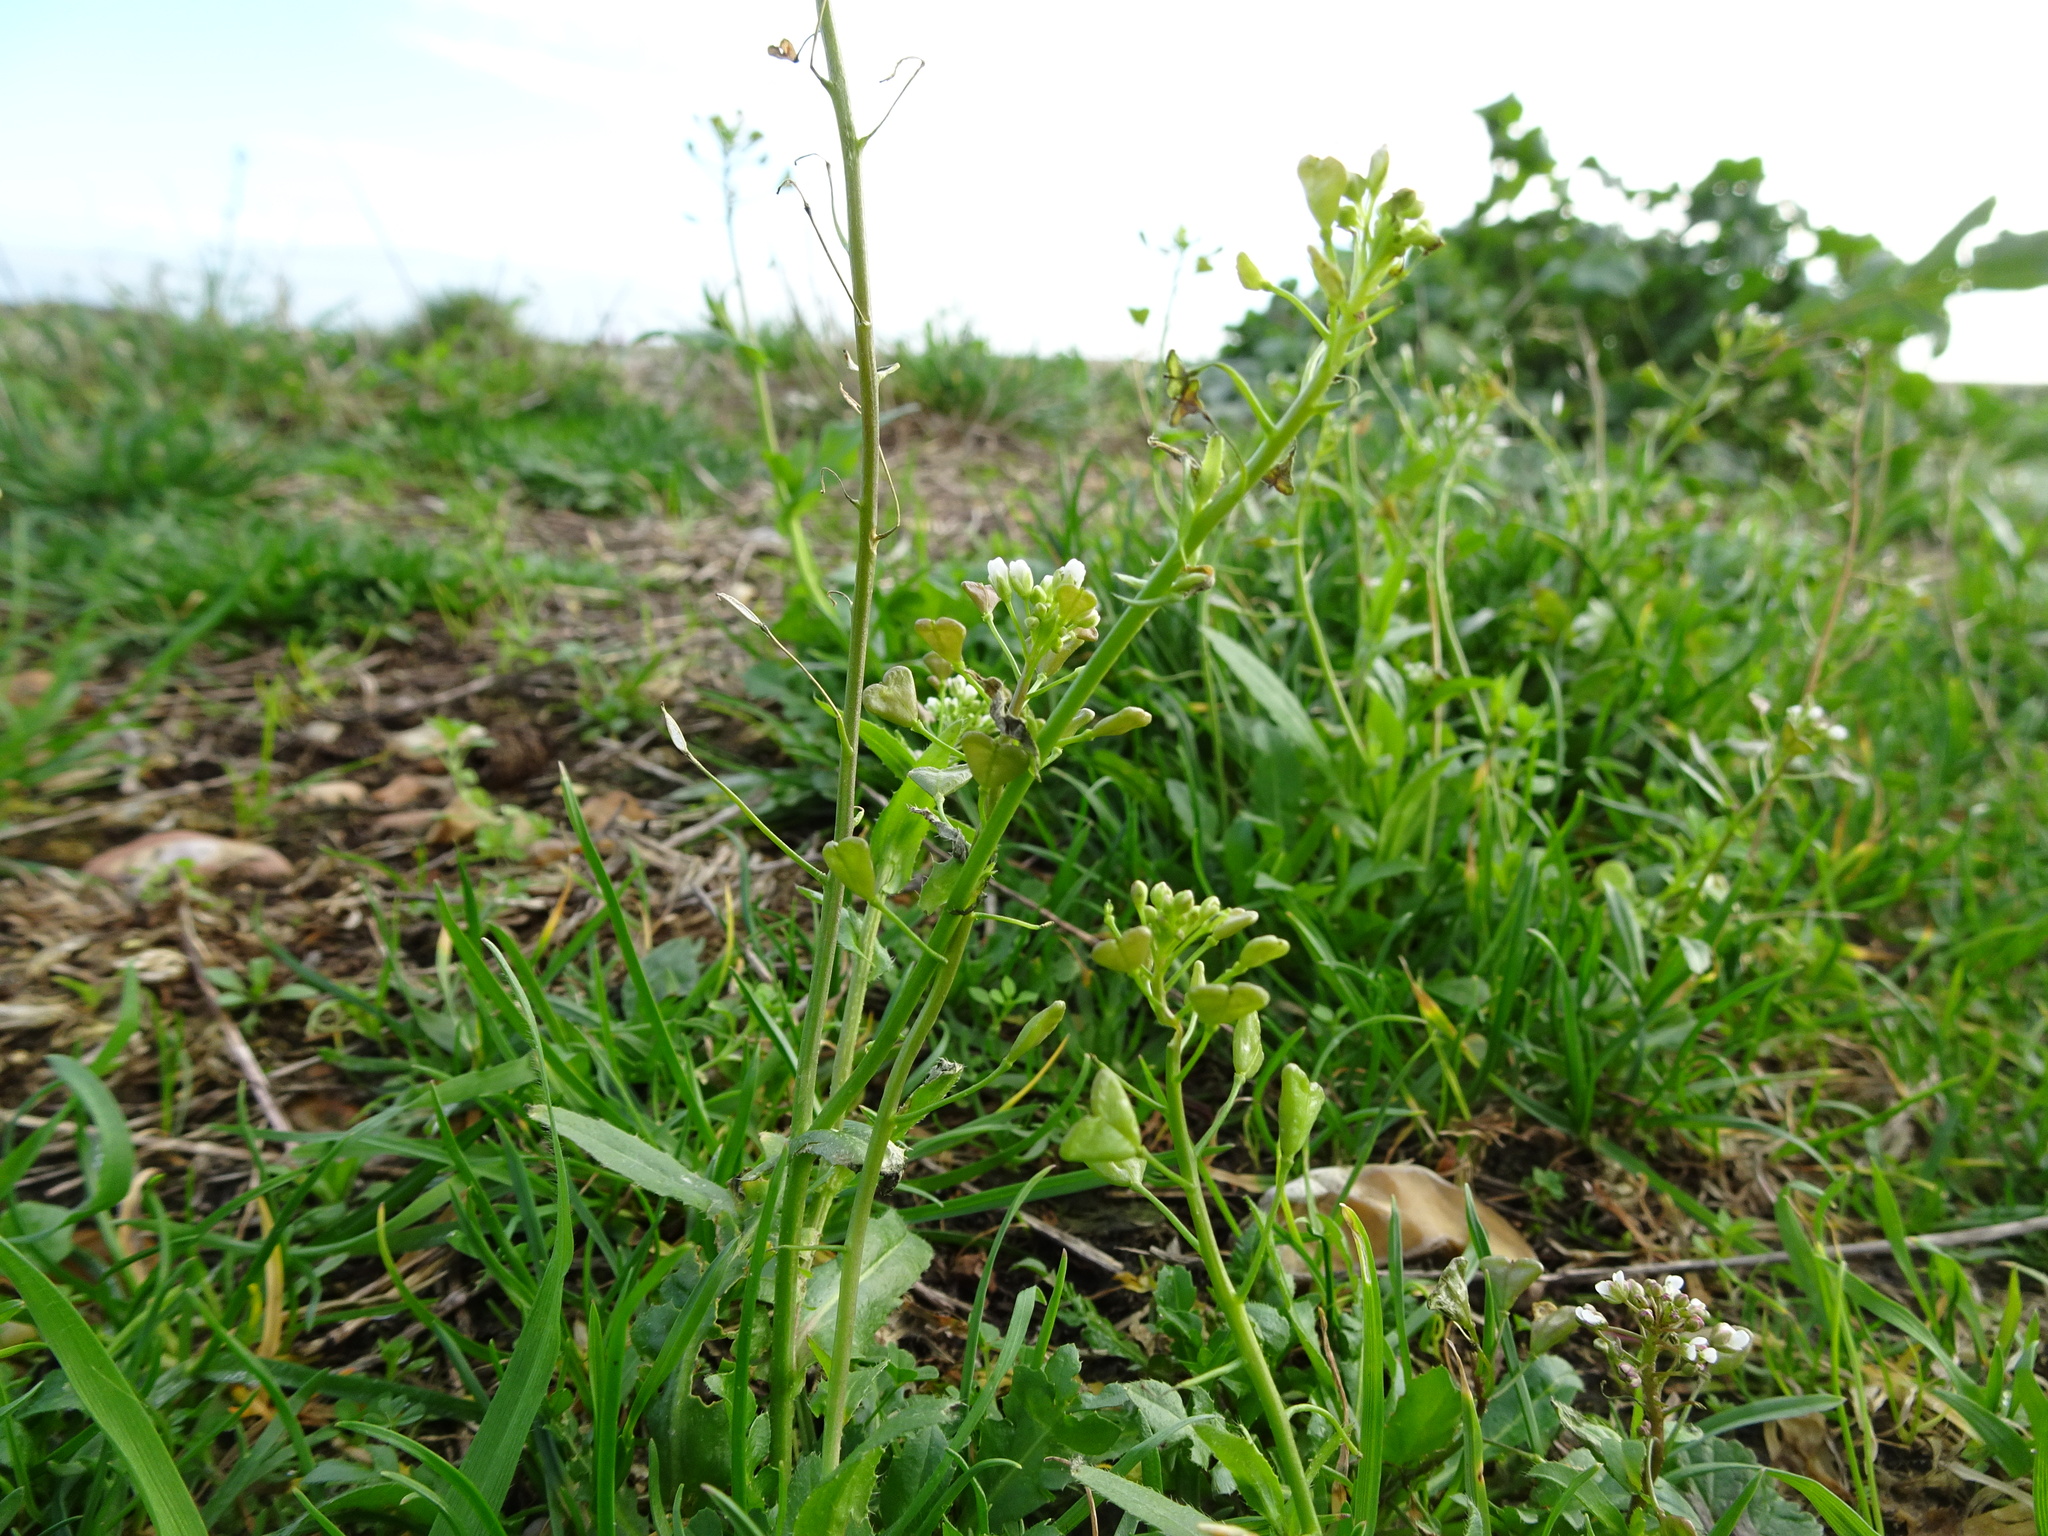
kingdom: Plantae
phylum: Tracheophyta
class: Magnoliopsida
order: Brassicales
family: Brassicaceae
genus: Capsella
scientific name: Capsella bursa-pastoris
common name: Shepherd's purse
